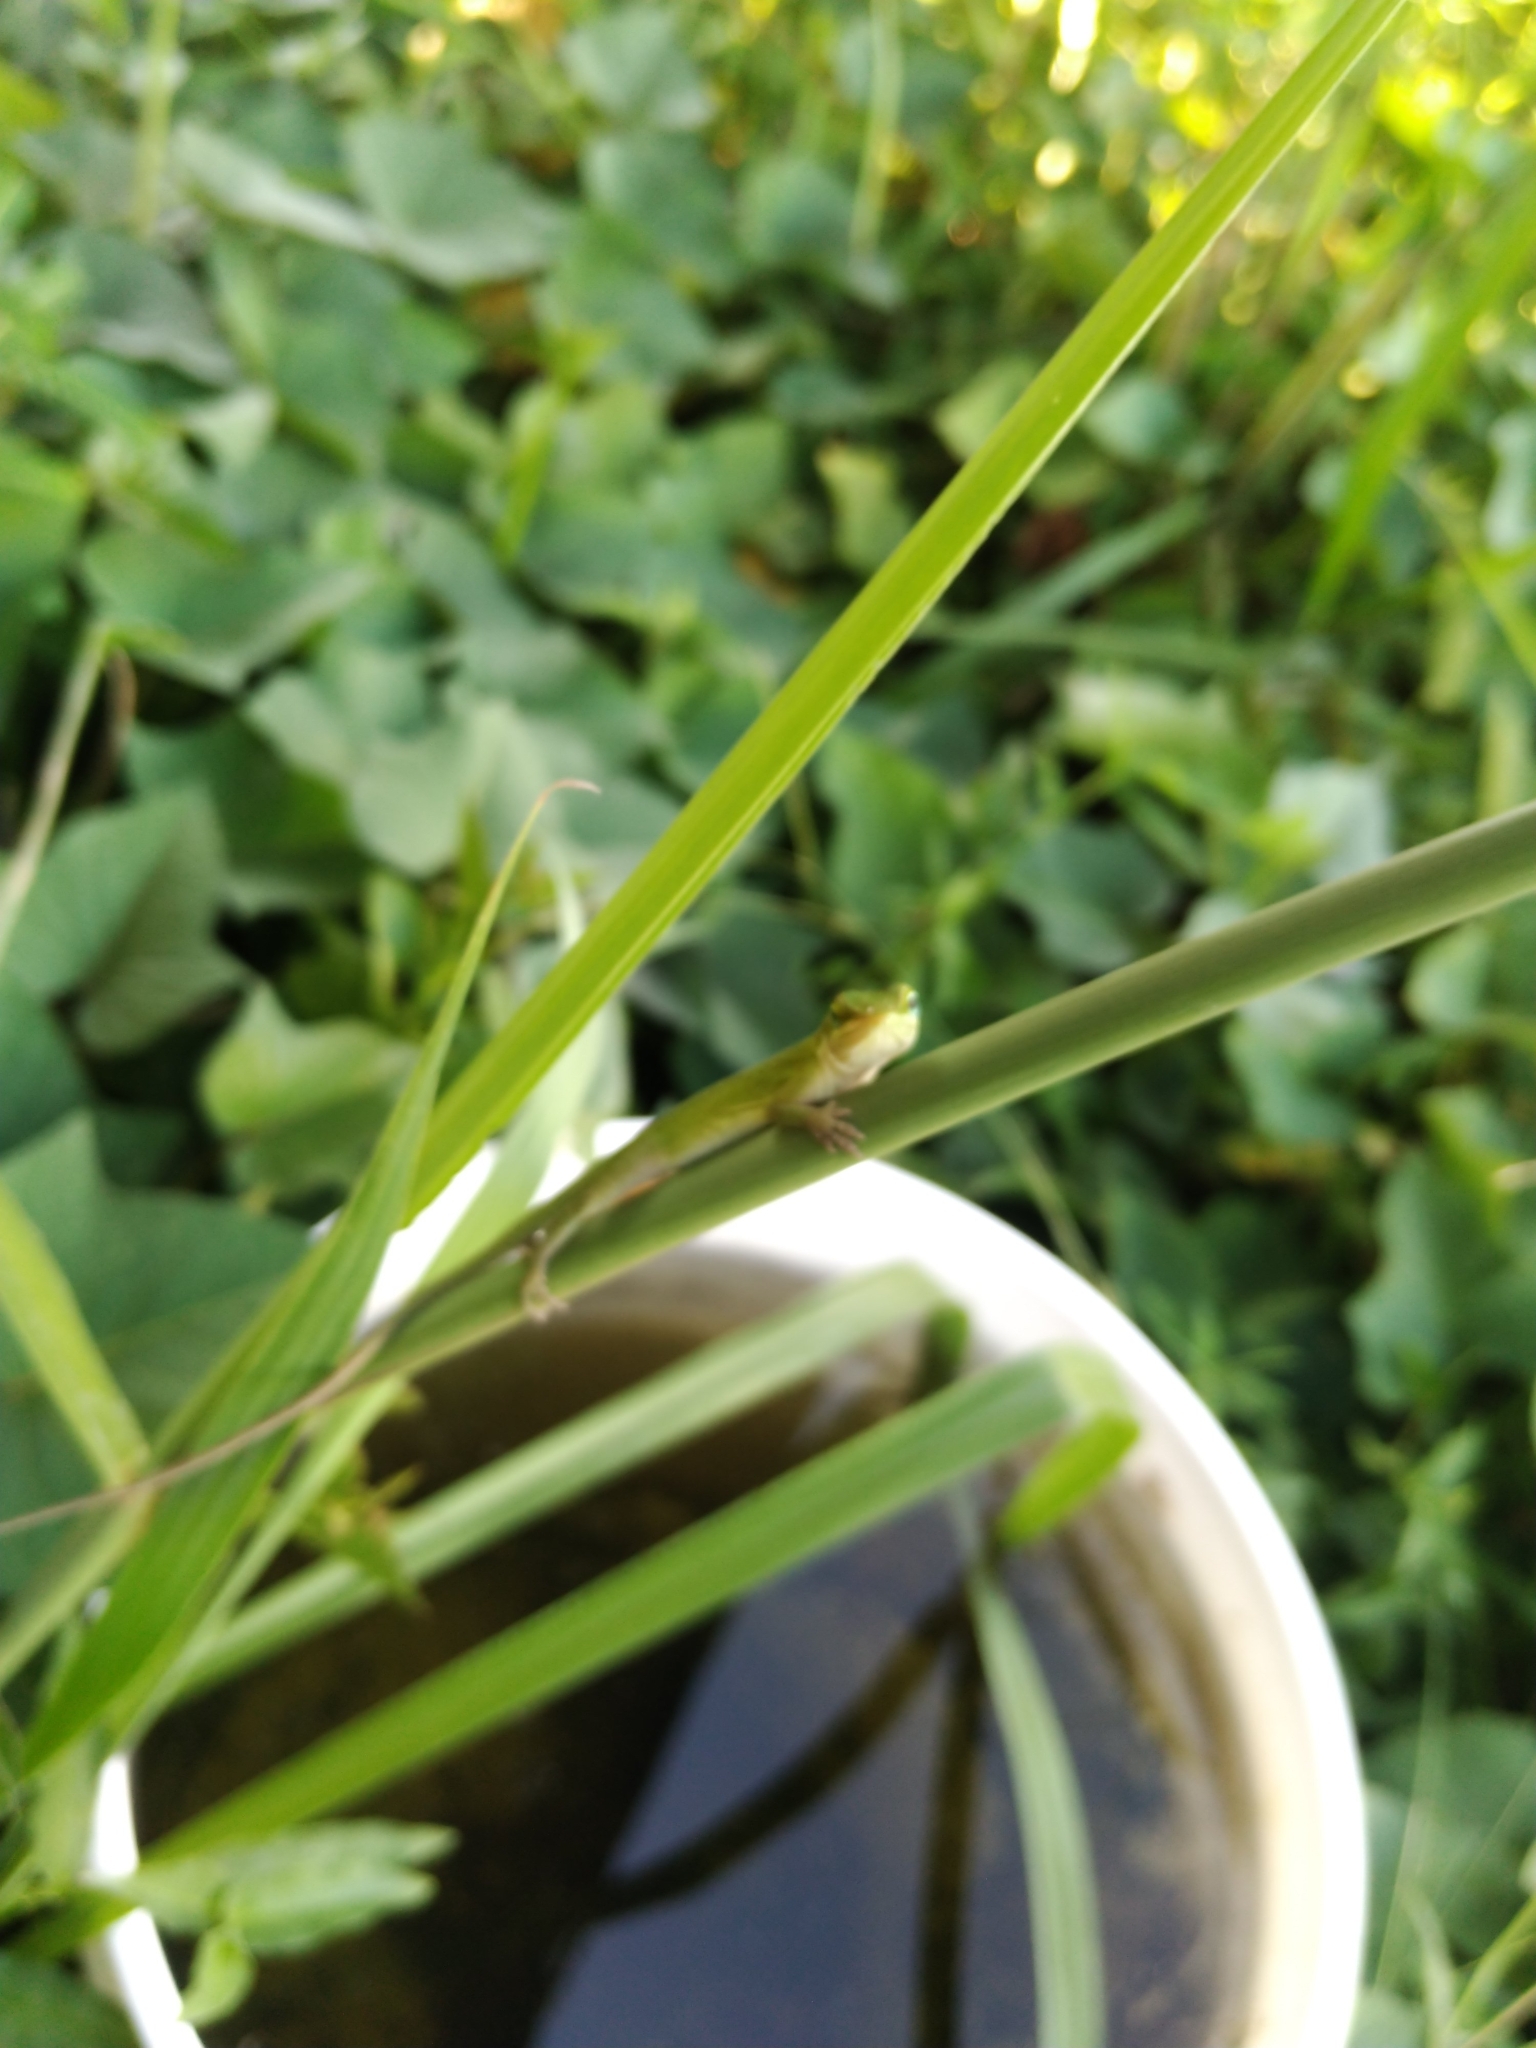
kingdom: Animalia
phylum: Chordata
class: Squamata
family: Dactyloidae
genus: Anolis
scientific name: Anolis carolinensis
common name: Green anole
